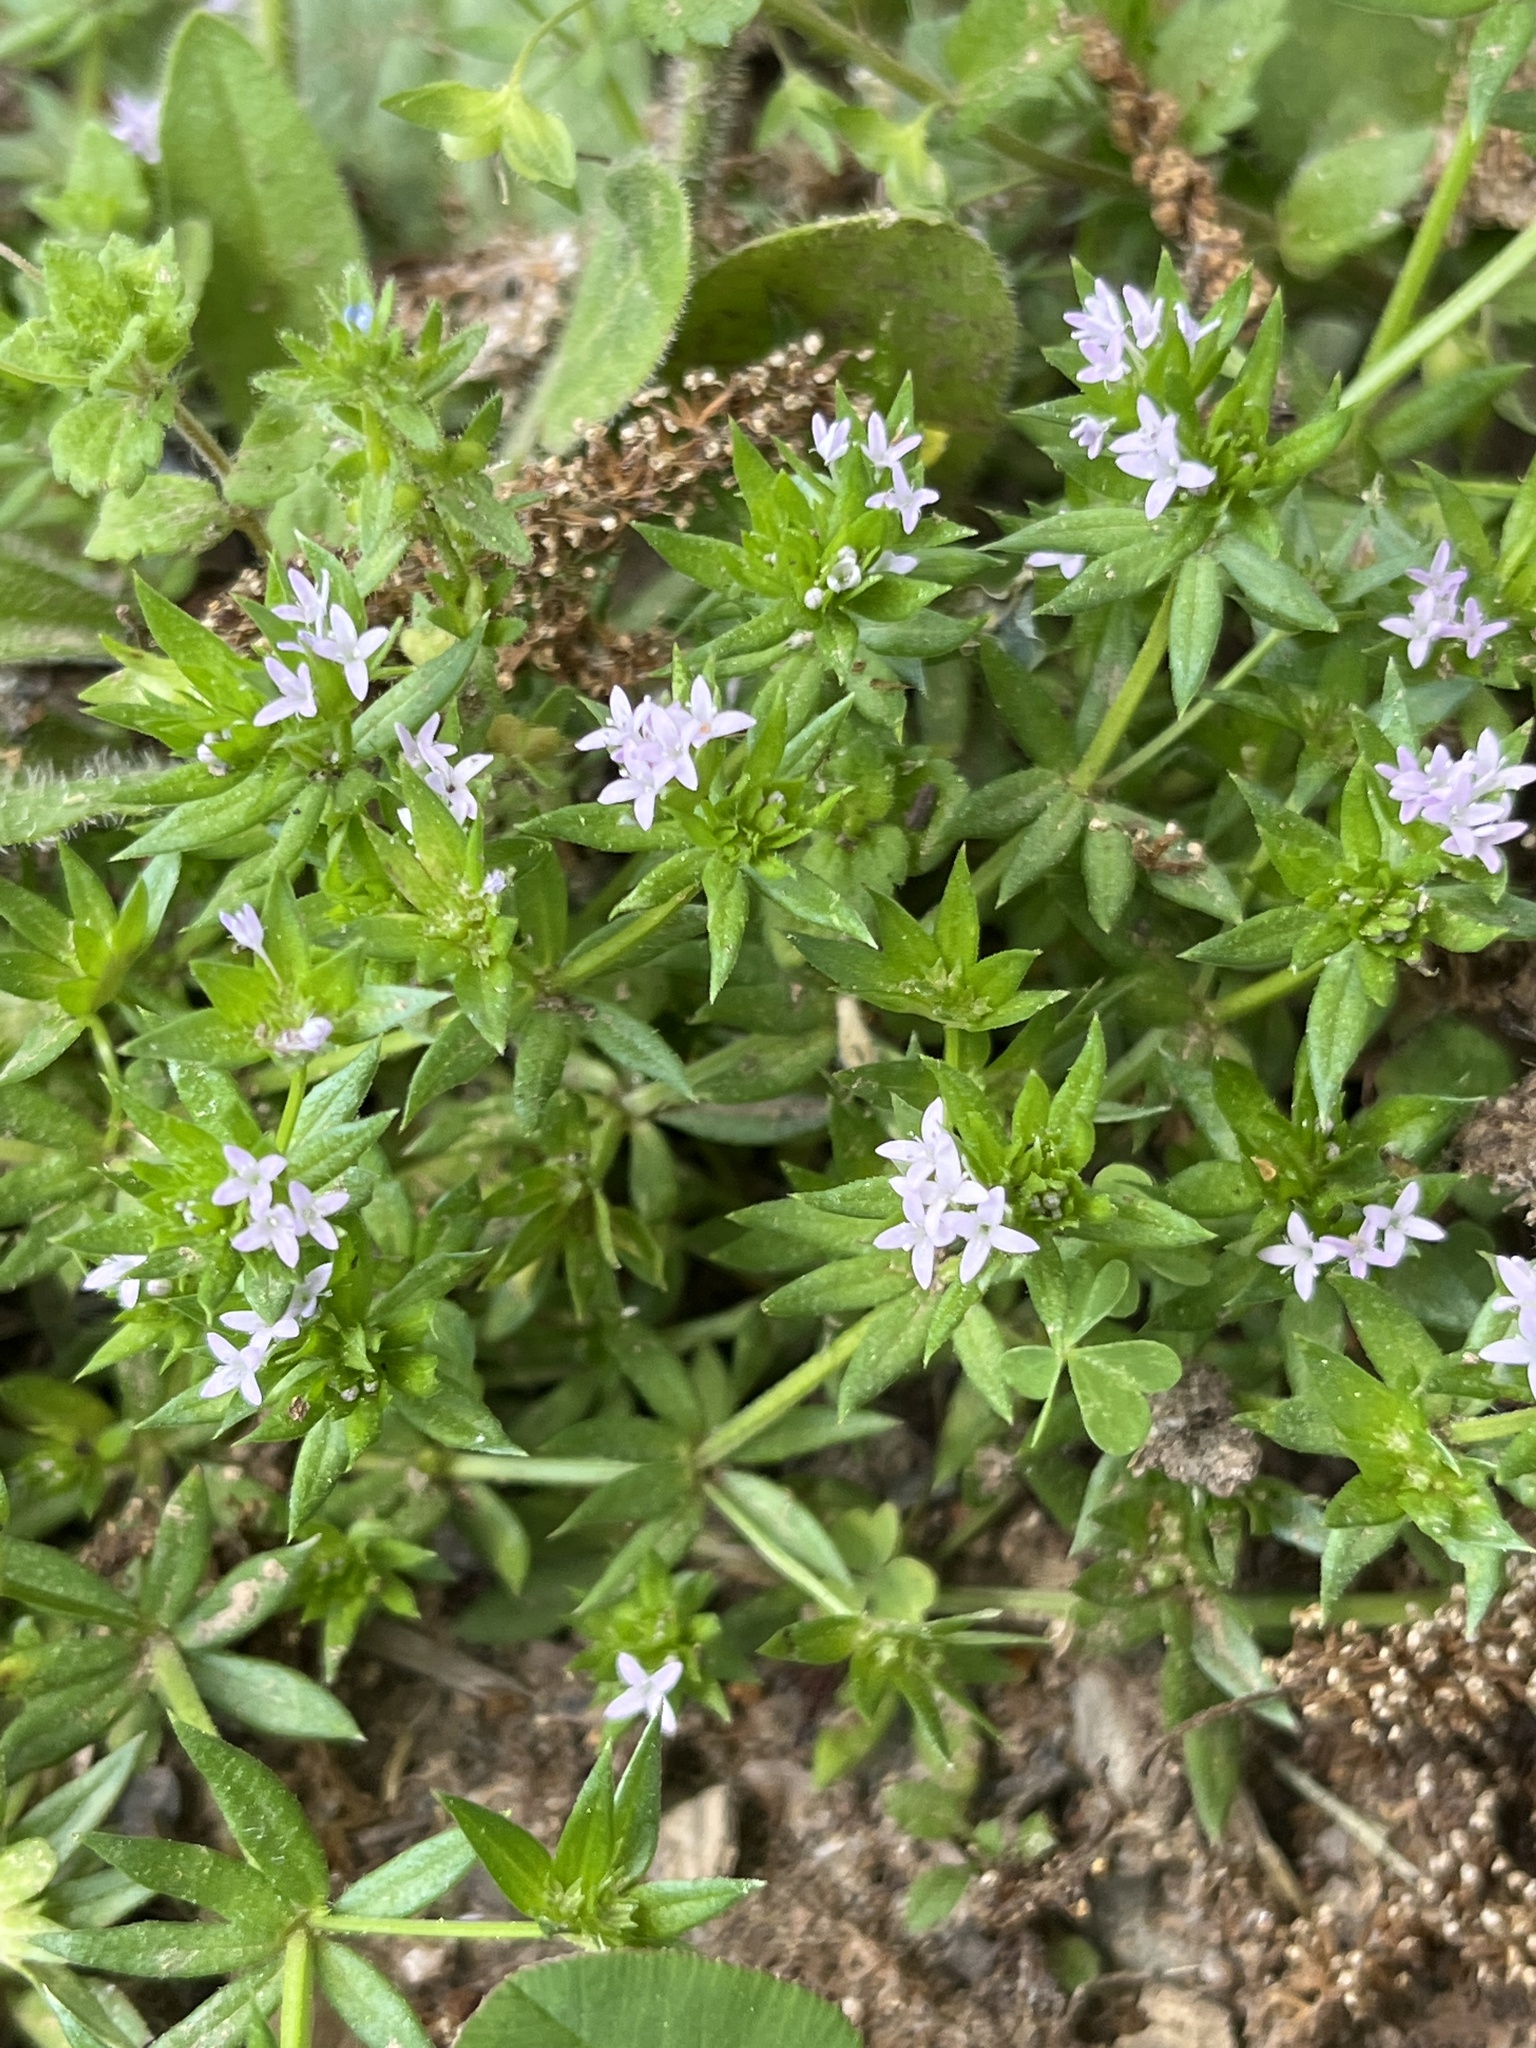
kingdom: Plantae
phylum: Tracheophyta
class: Magnoliopsida
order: Gentianales
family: Rubiaceae
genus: Sherardia
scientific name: Sherardia arvensis
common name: Field madder
